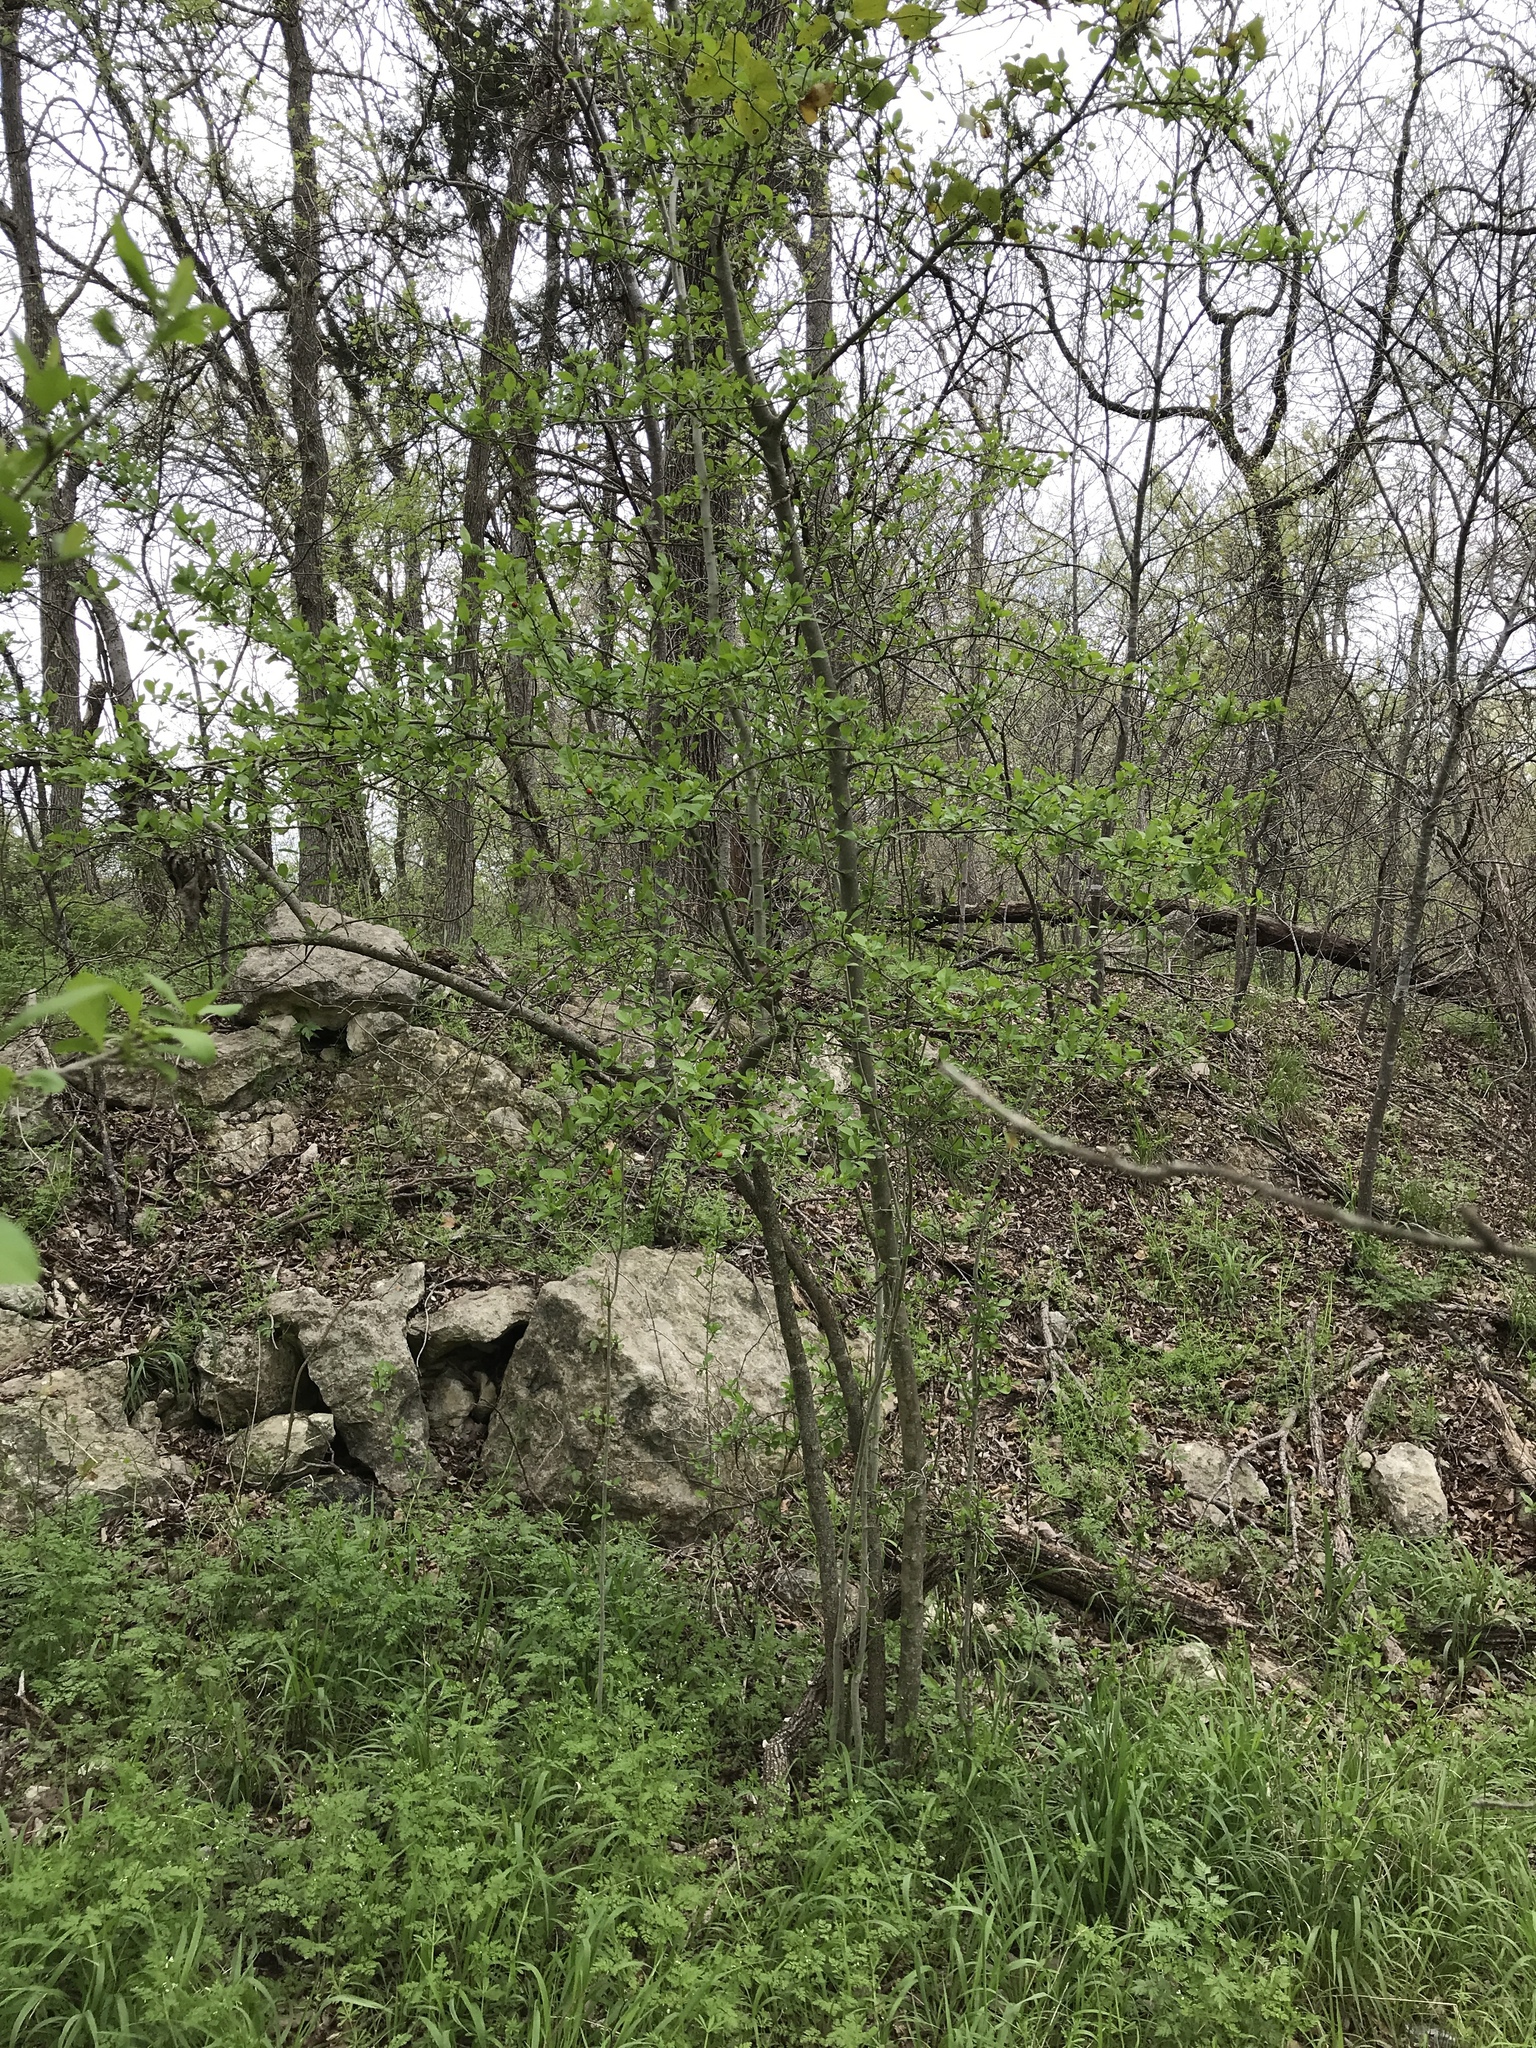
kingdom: Plantae
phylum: Tracheophyta
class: Magnoliopsida
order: Aquifoliales
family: Aquifoliaceae
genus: Ilex
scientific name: Ilex decidua
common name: Possum-haw
